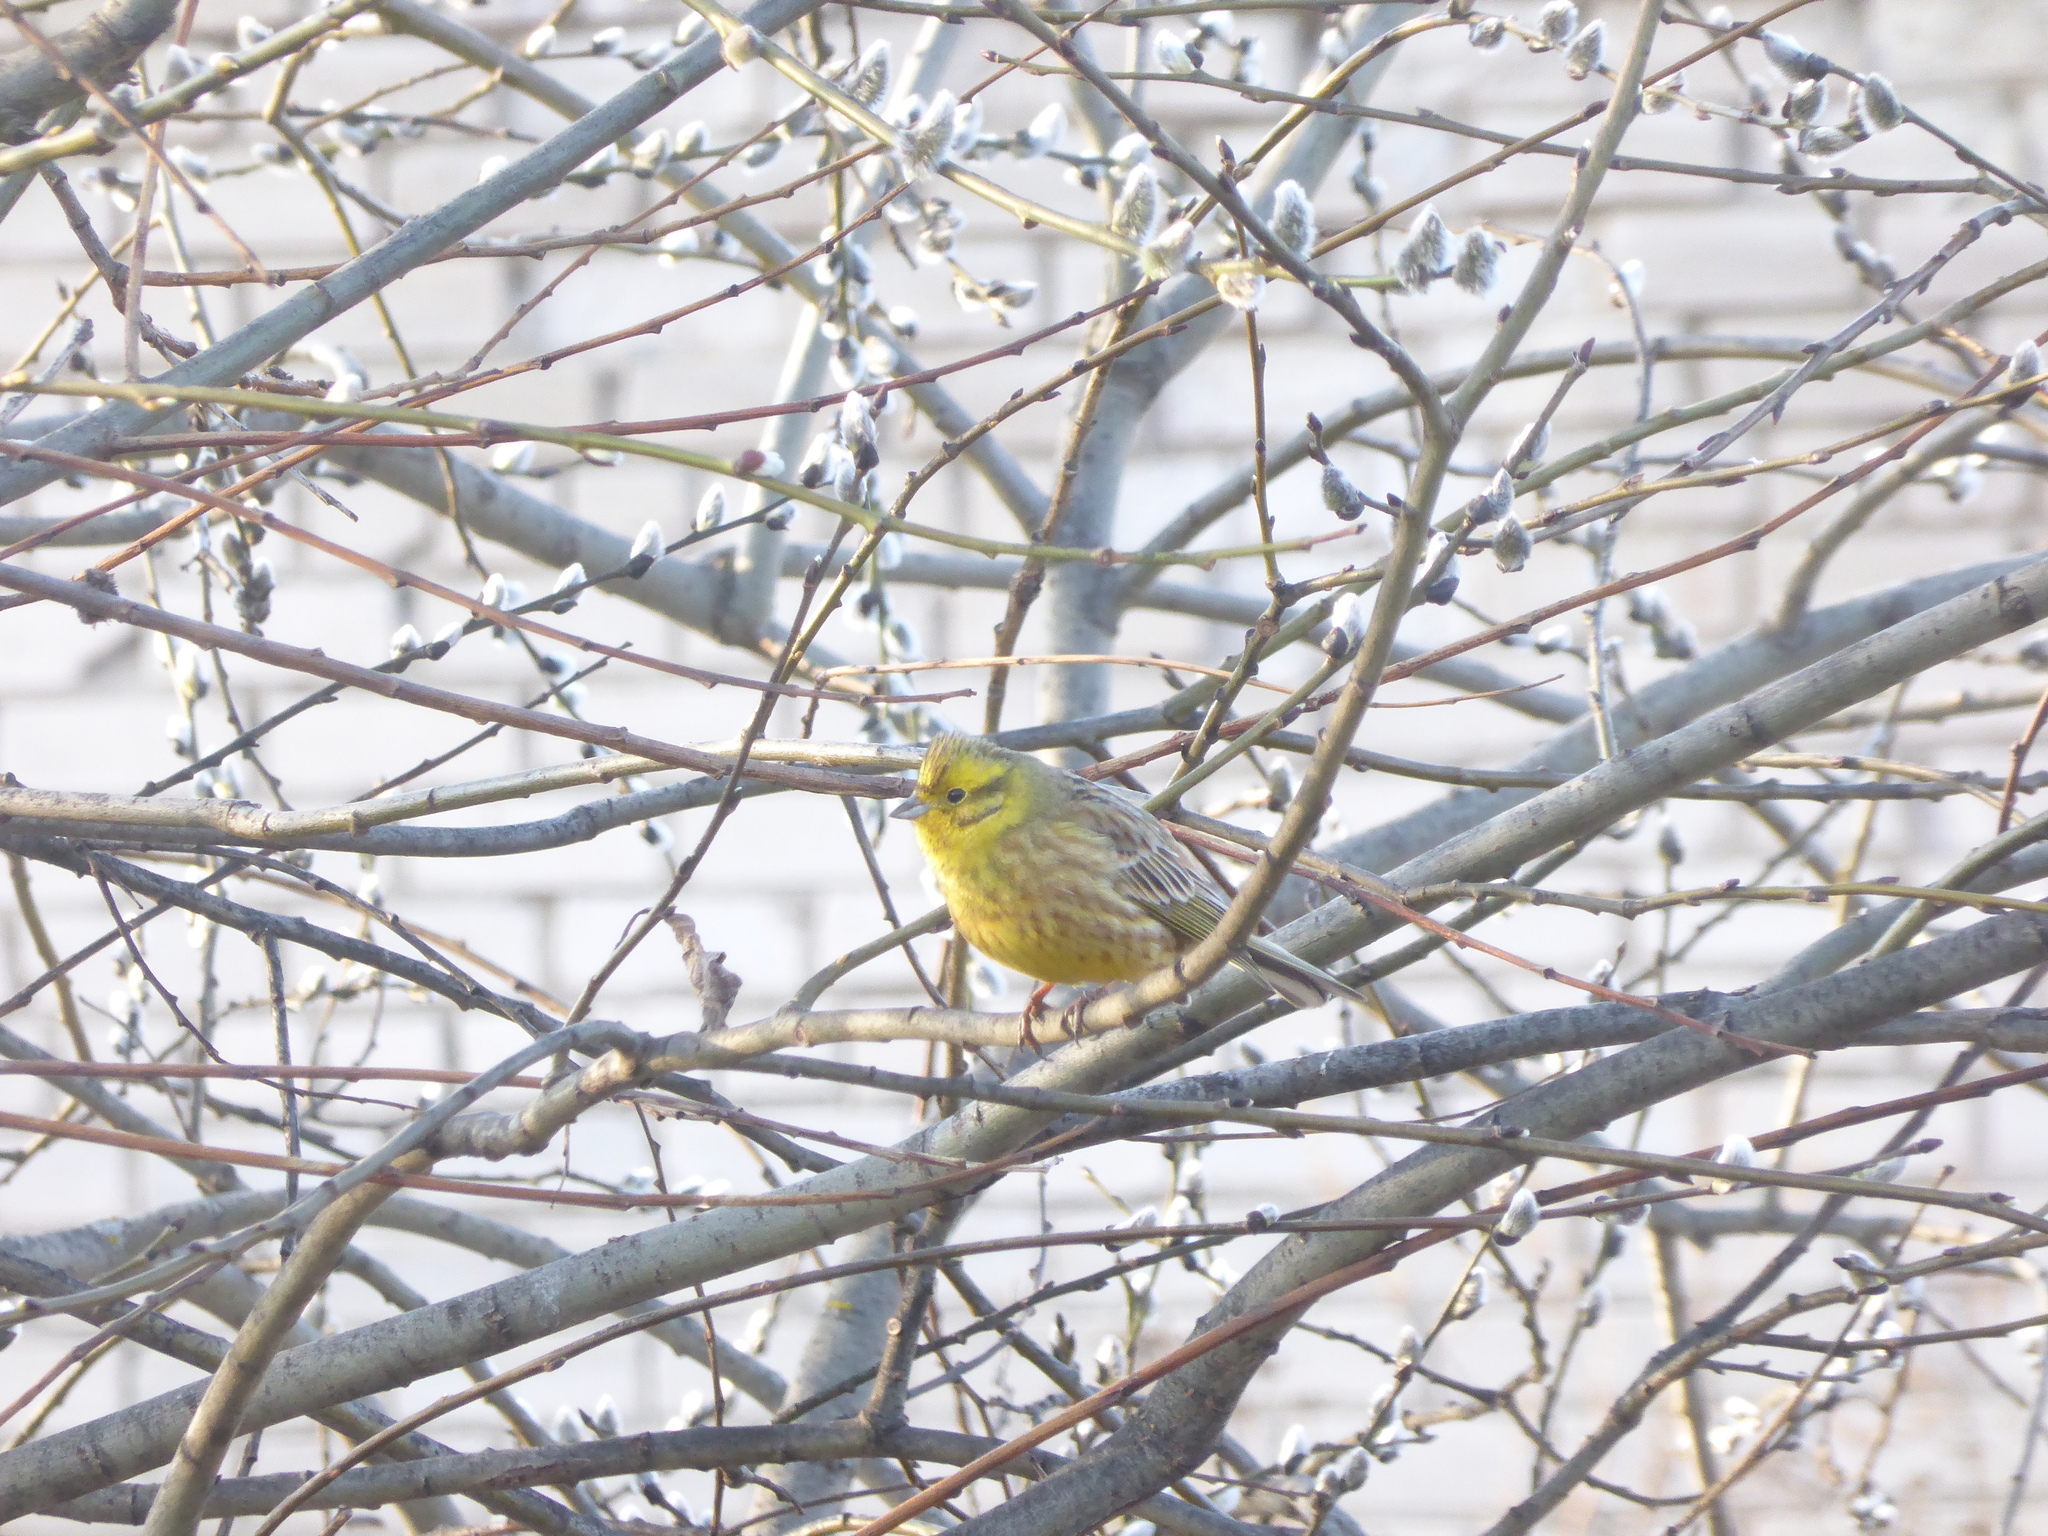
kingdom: Animalia
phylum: Chordata
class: Aves
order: Passeriformes
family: Emberizidae
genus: Emberiza
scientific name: Emberiza citrinella
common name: Yellowhammer
